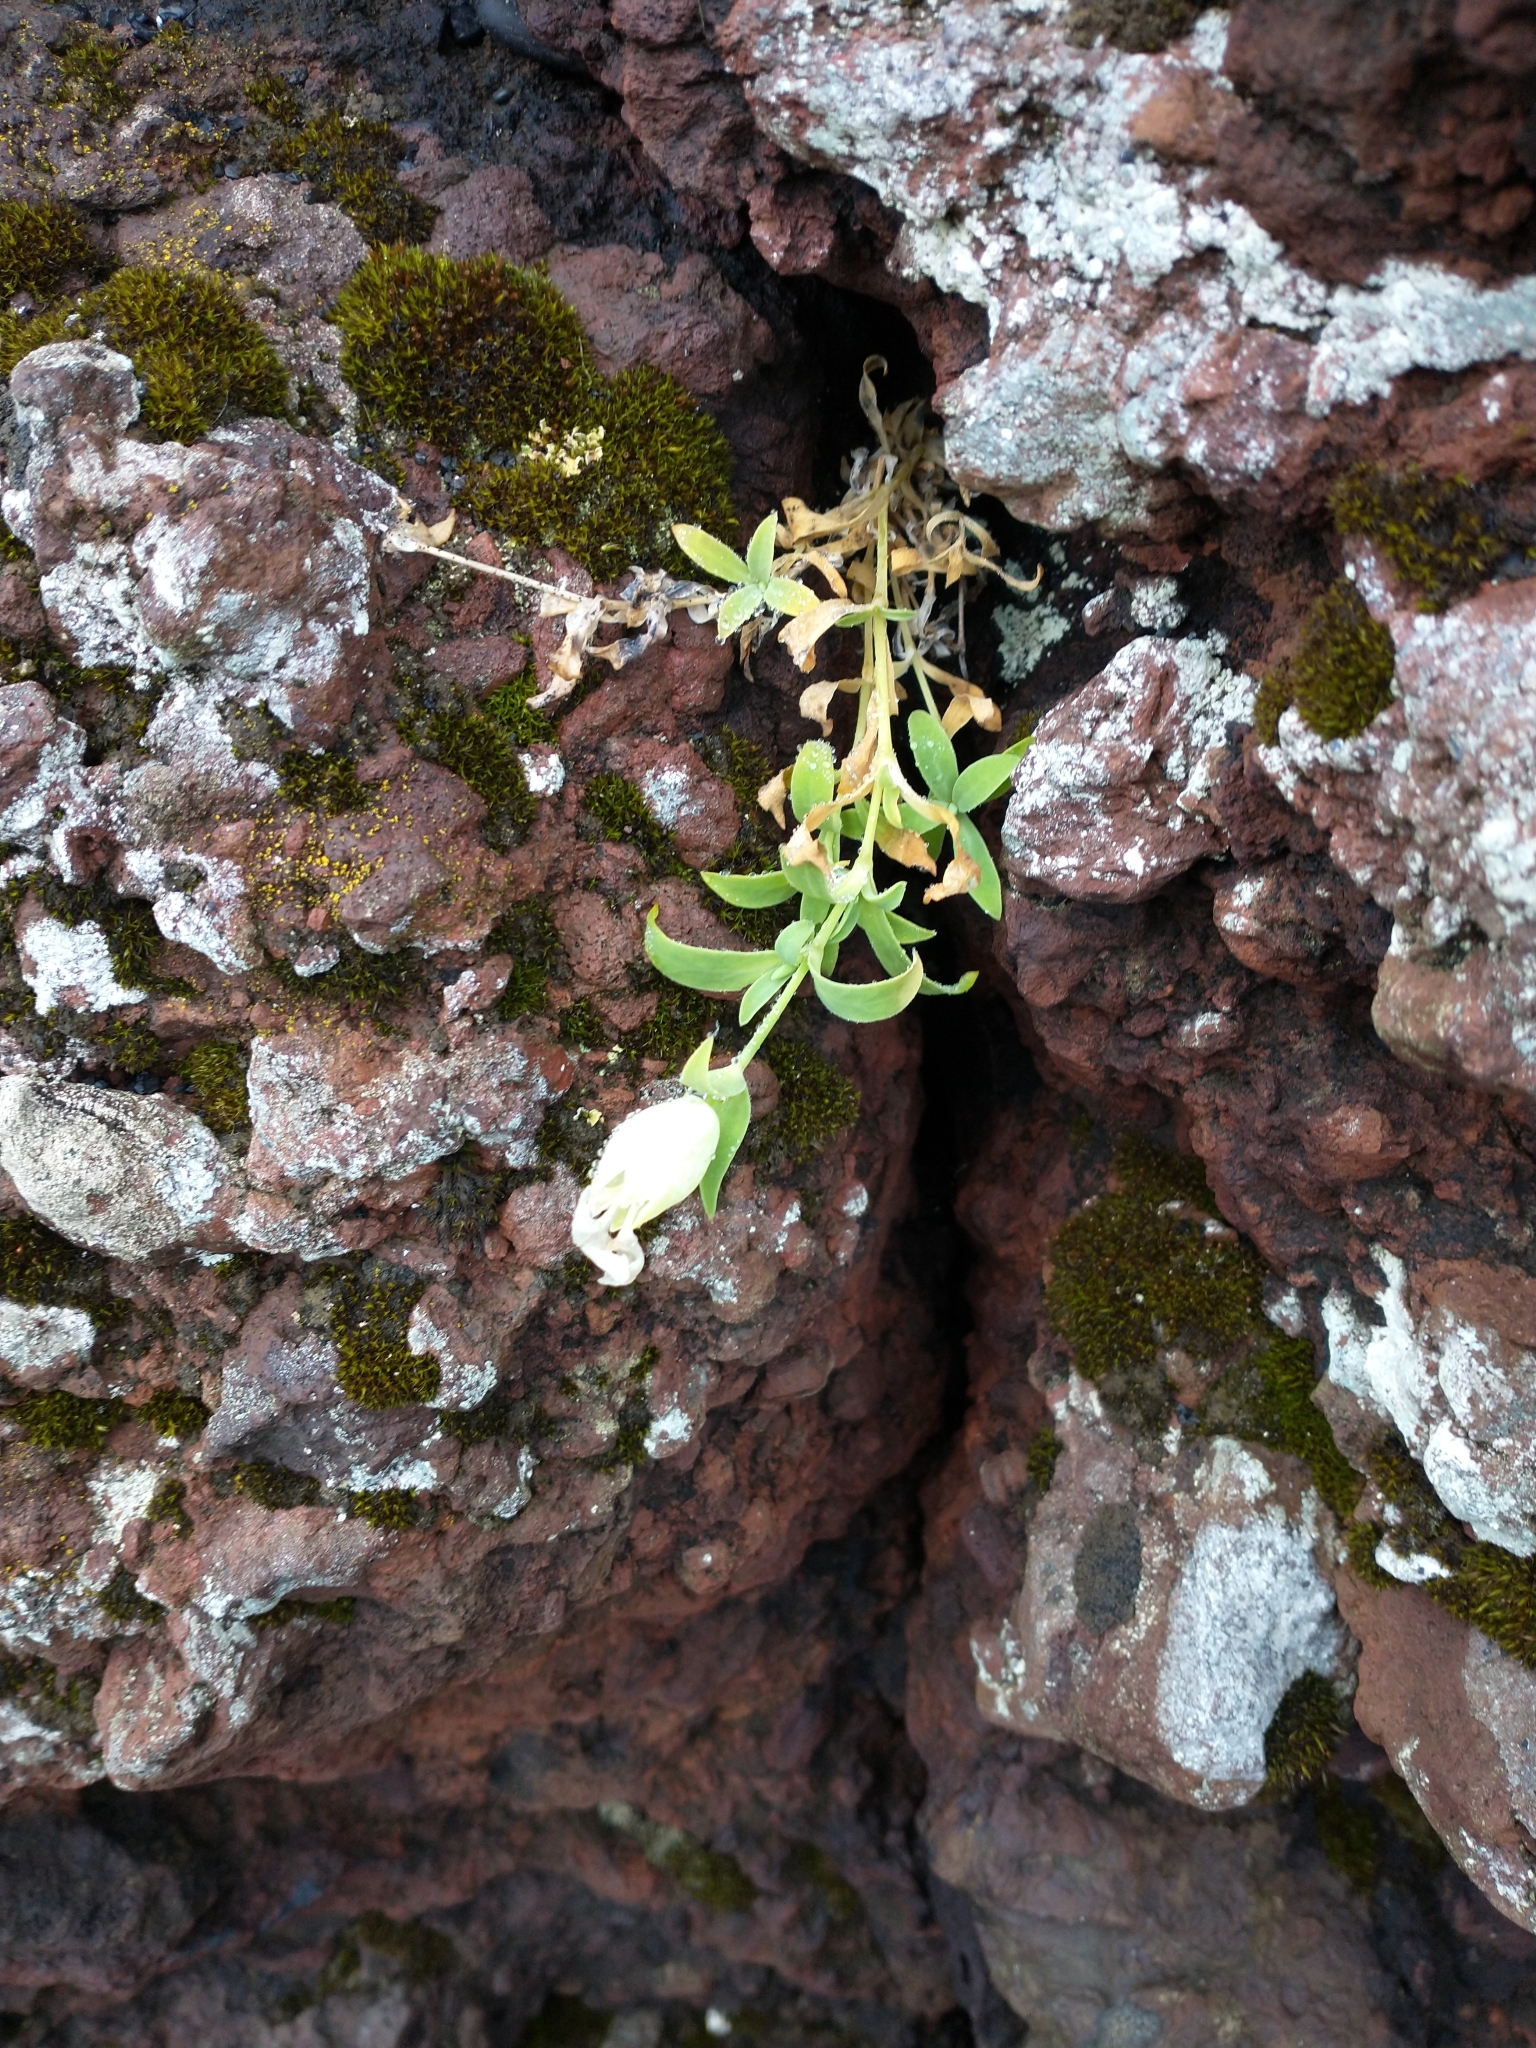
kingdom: Plantae
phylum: Tracheophyta
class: Magnoliopsida
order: Caryophyllales
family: Caryophyllaceae
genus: Silene
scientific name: Silene uniflora
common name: Sea campion
